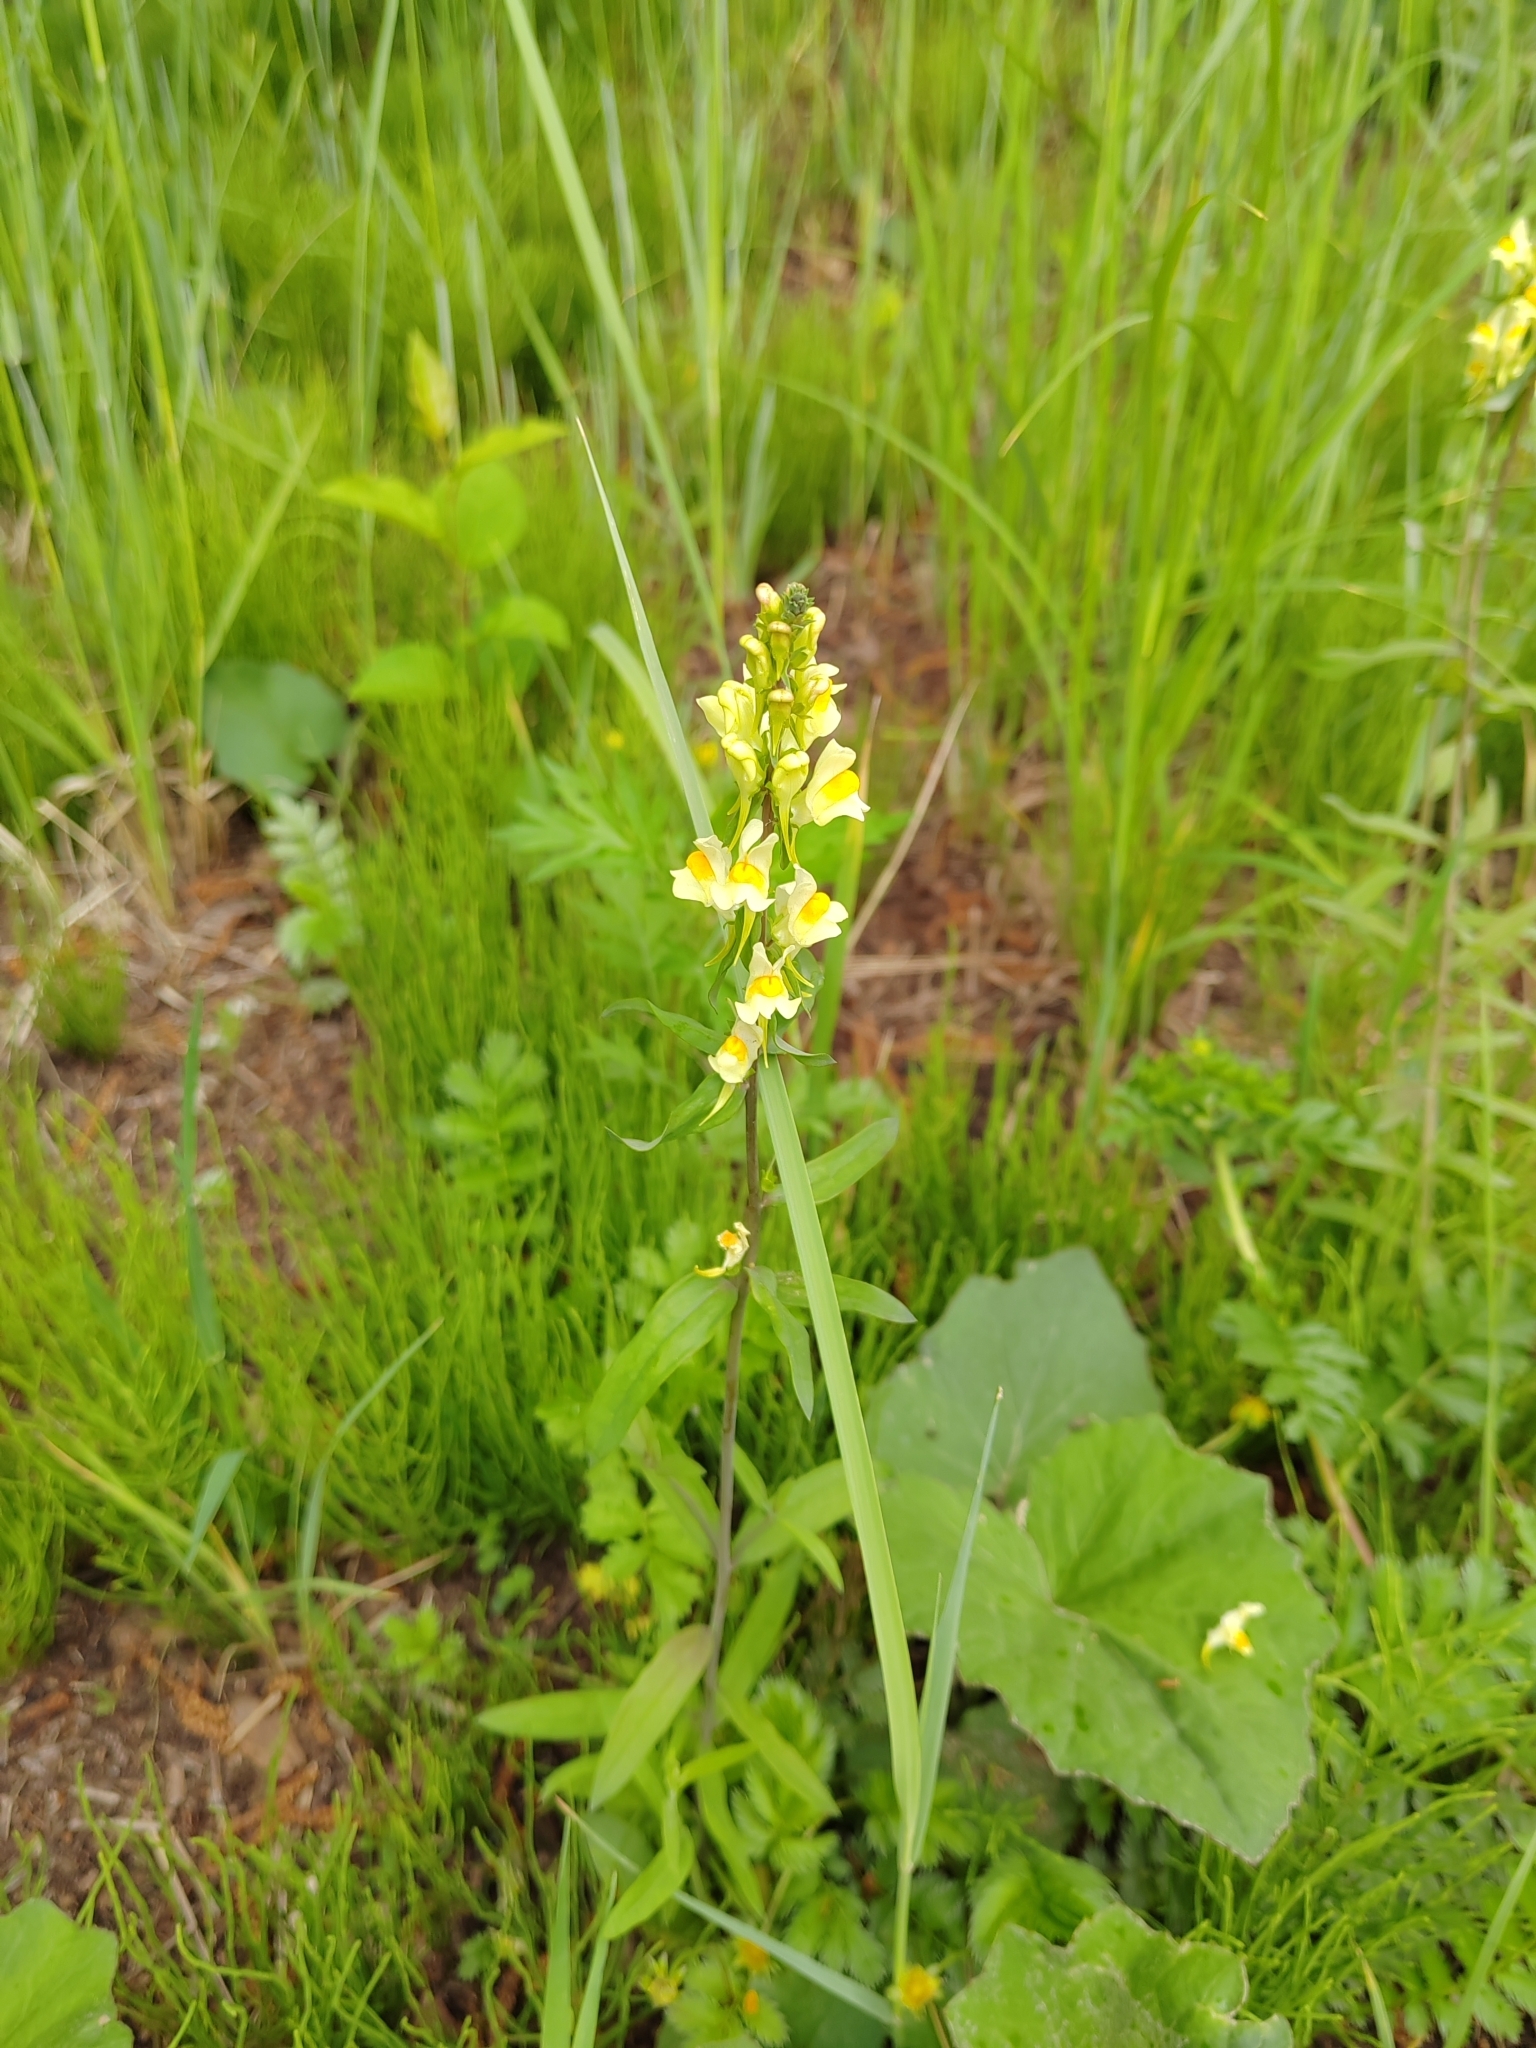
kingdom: Plantae
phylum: Tracheophyta
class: Magnoliopsida
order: Lamiales
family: Plantaginaceae
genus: Linaria
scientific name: Linaria vulgaris
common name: Butter and eggs
